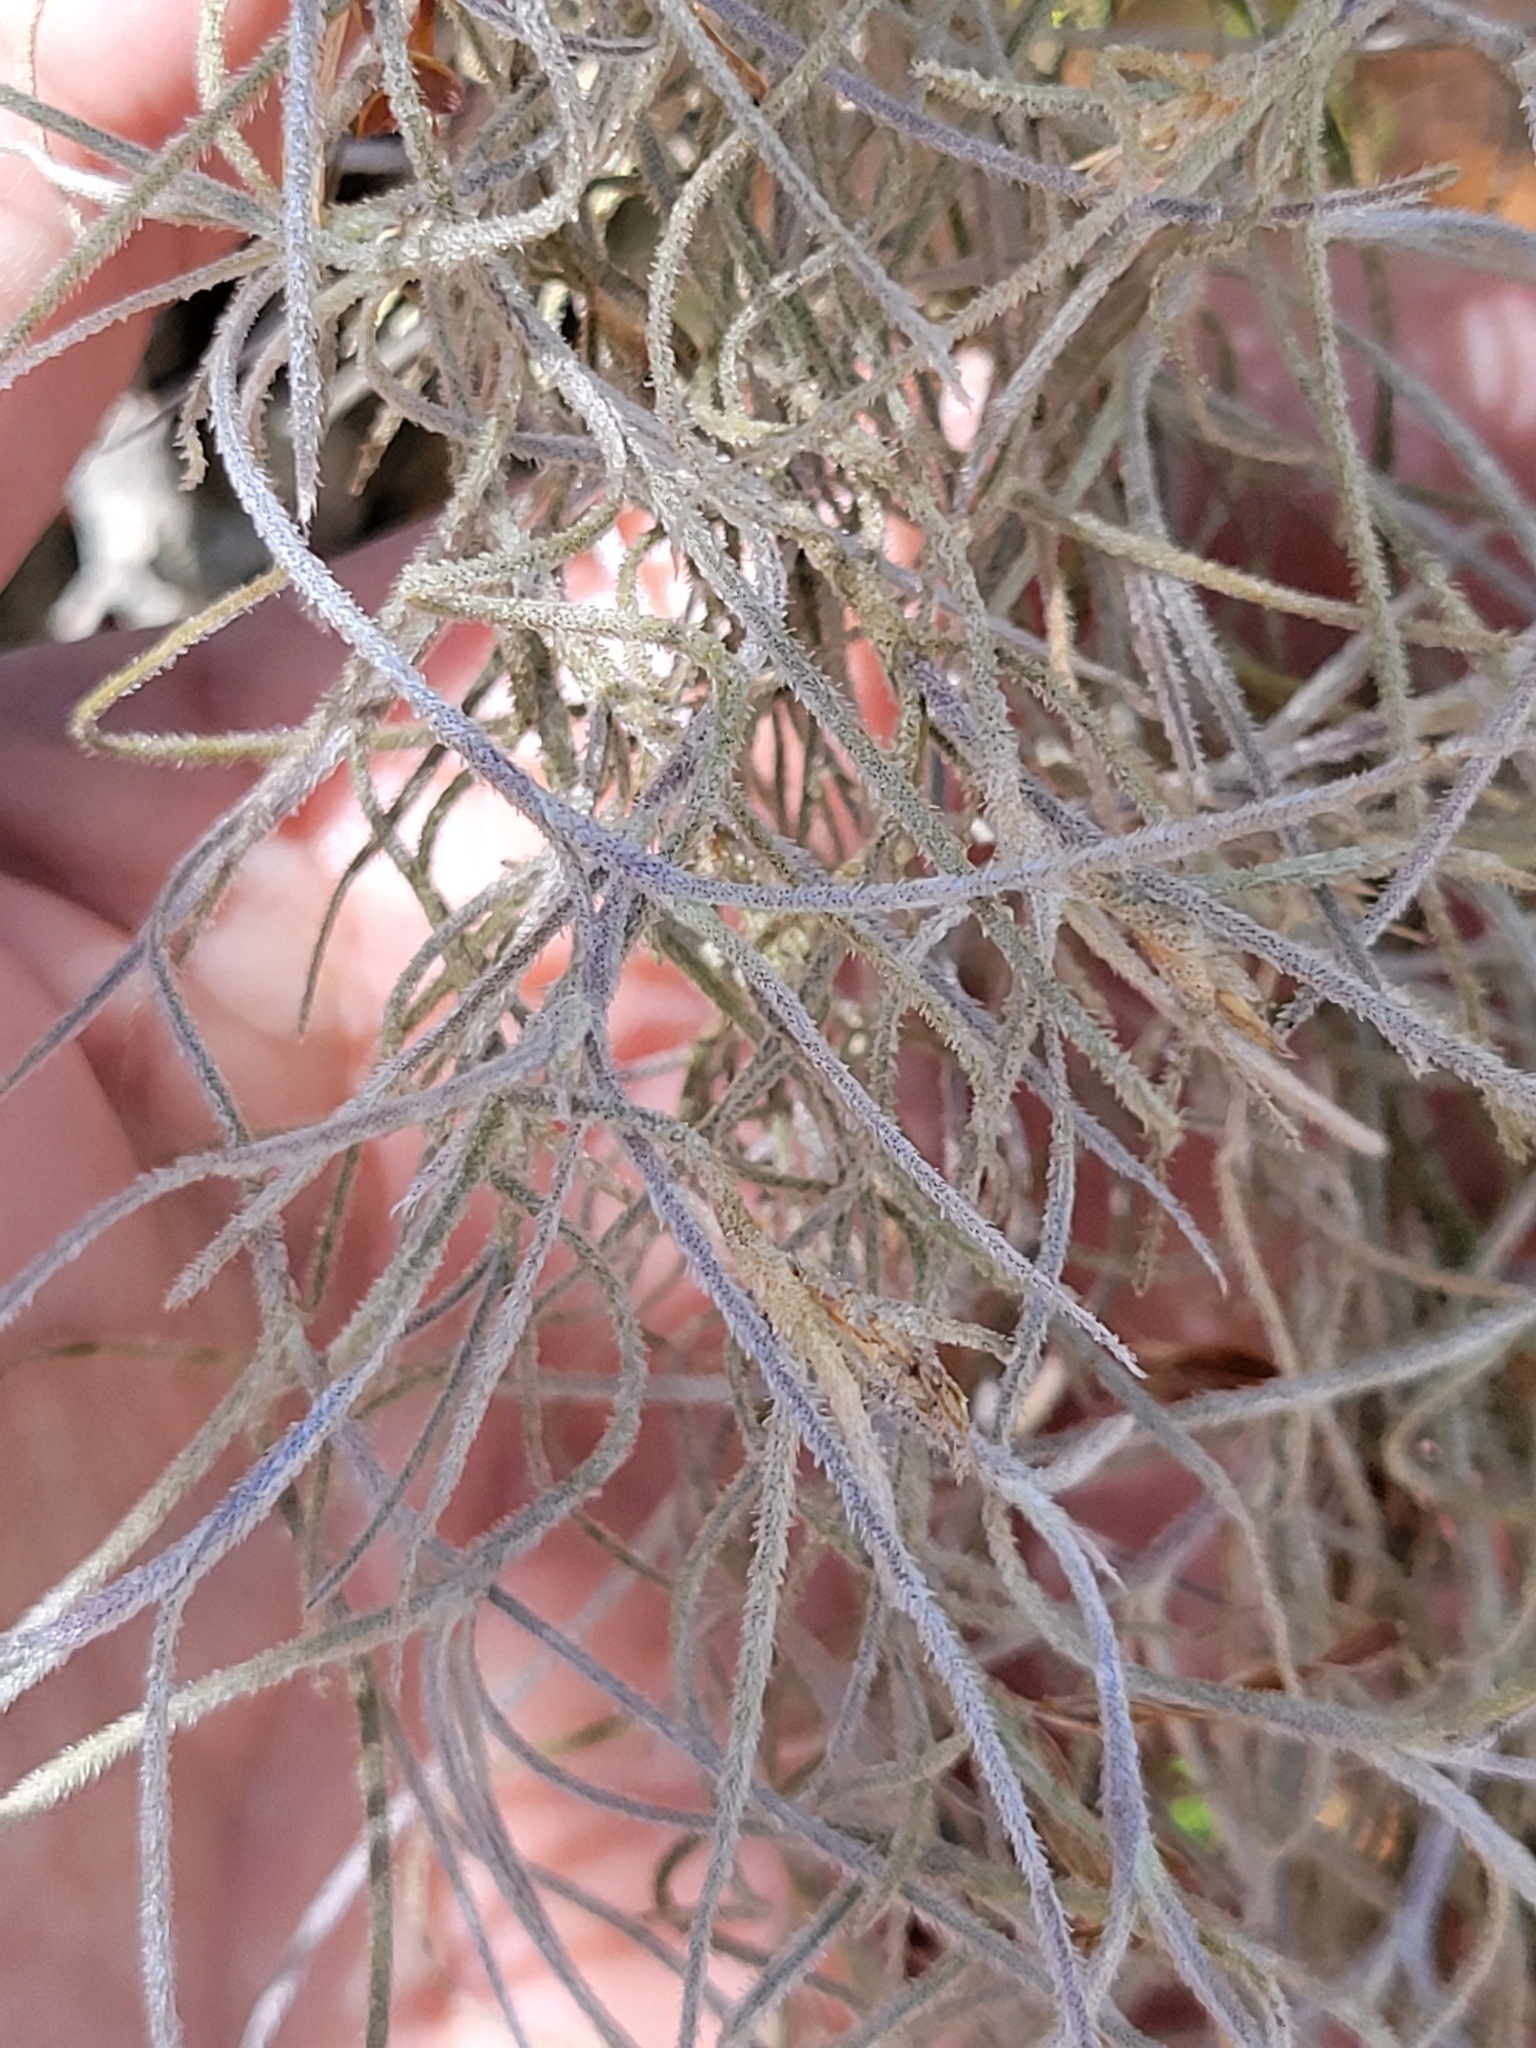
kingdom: Plantae
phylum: Tracheophyta
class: Liliopsida
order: Poales
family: Bromeliaceae
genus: Tillandsia
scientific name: Tillandsia usneoides
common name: Spanish moss
